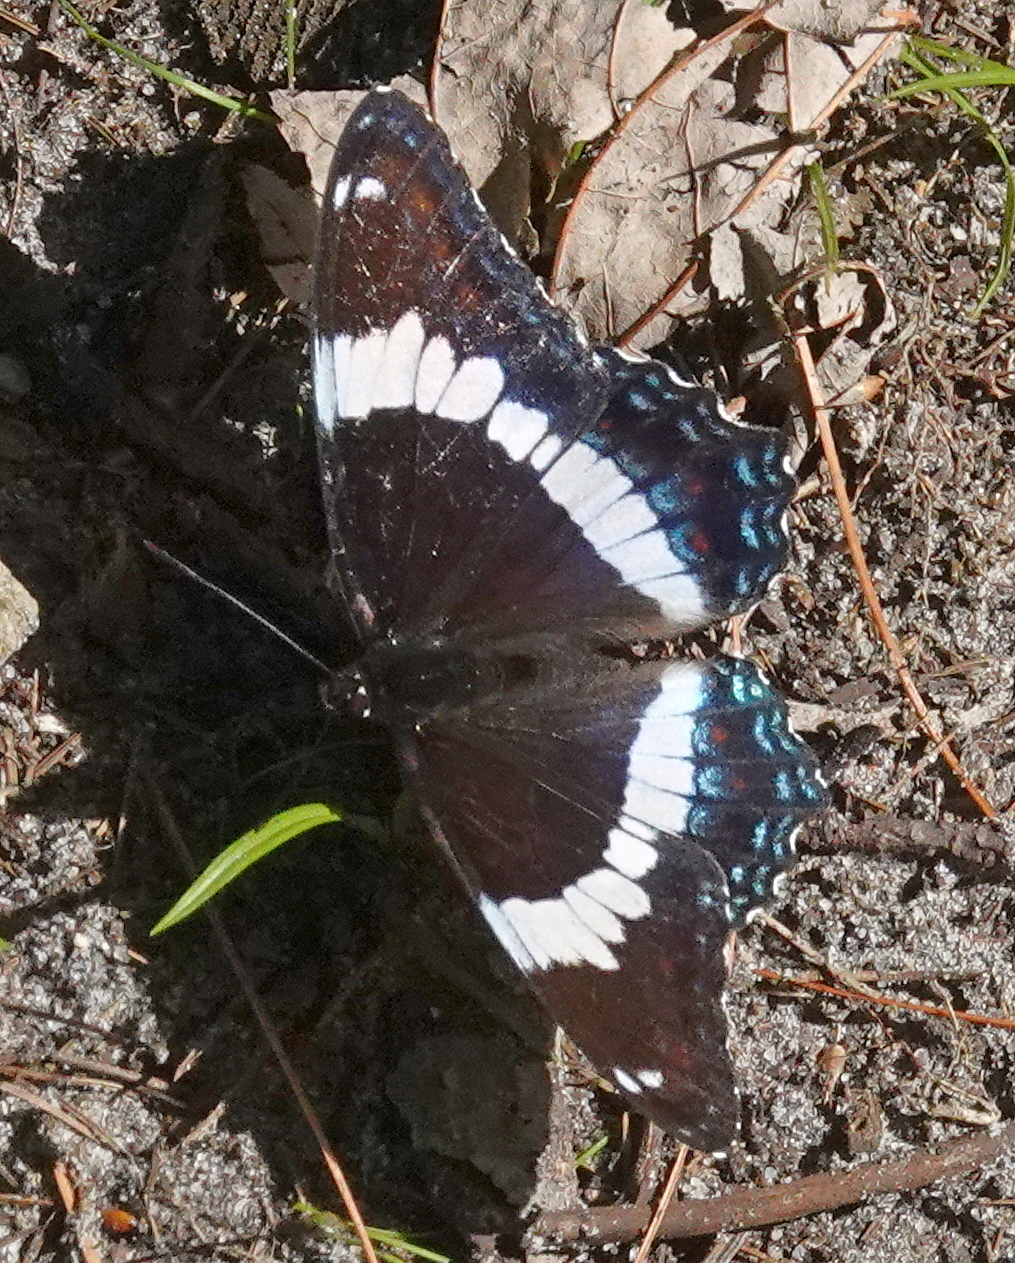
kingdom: Animalia
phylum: Arthropoda
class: Insecta
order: Lepidoptera
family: Nymphalidae
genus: Limenitis
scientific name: Limenitis arthemis
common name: Red-spotted admiral
